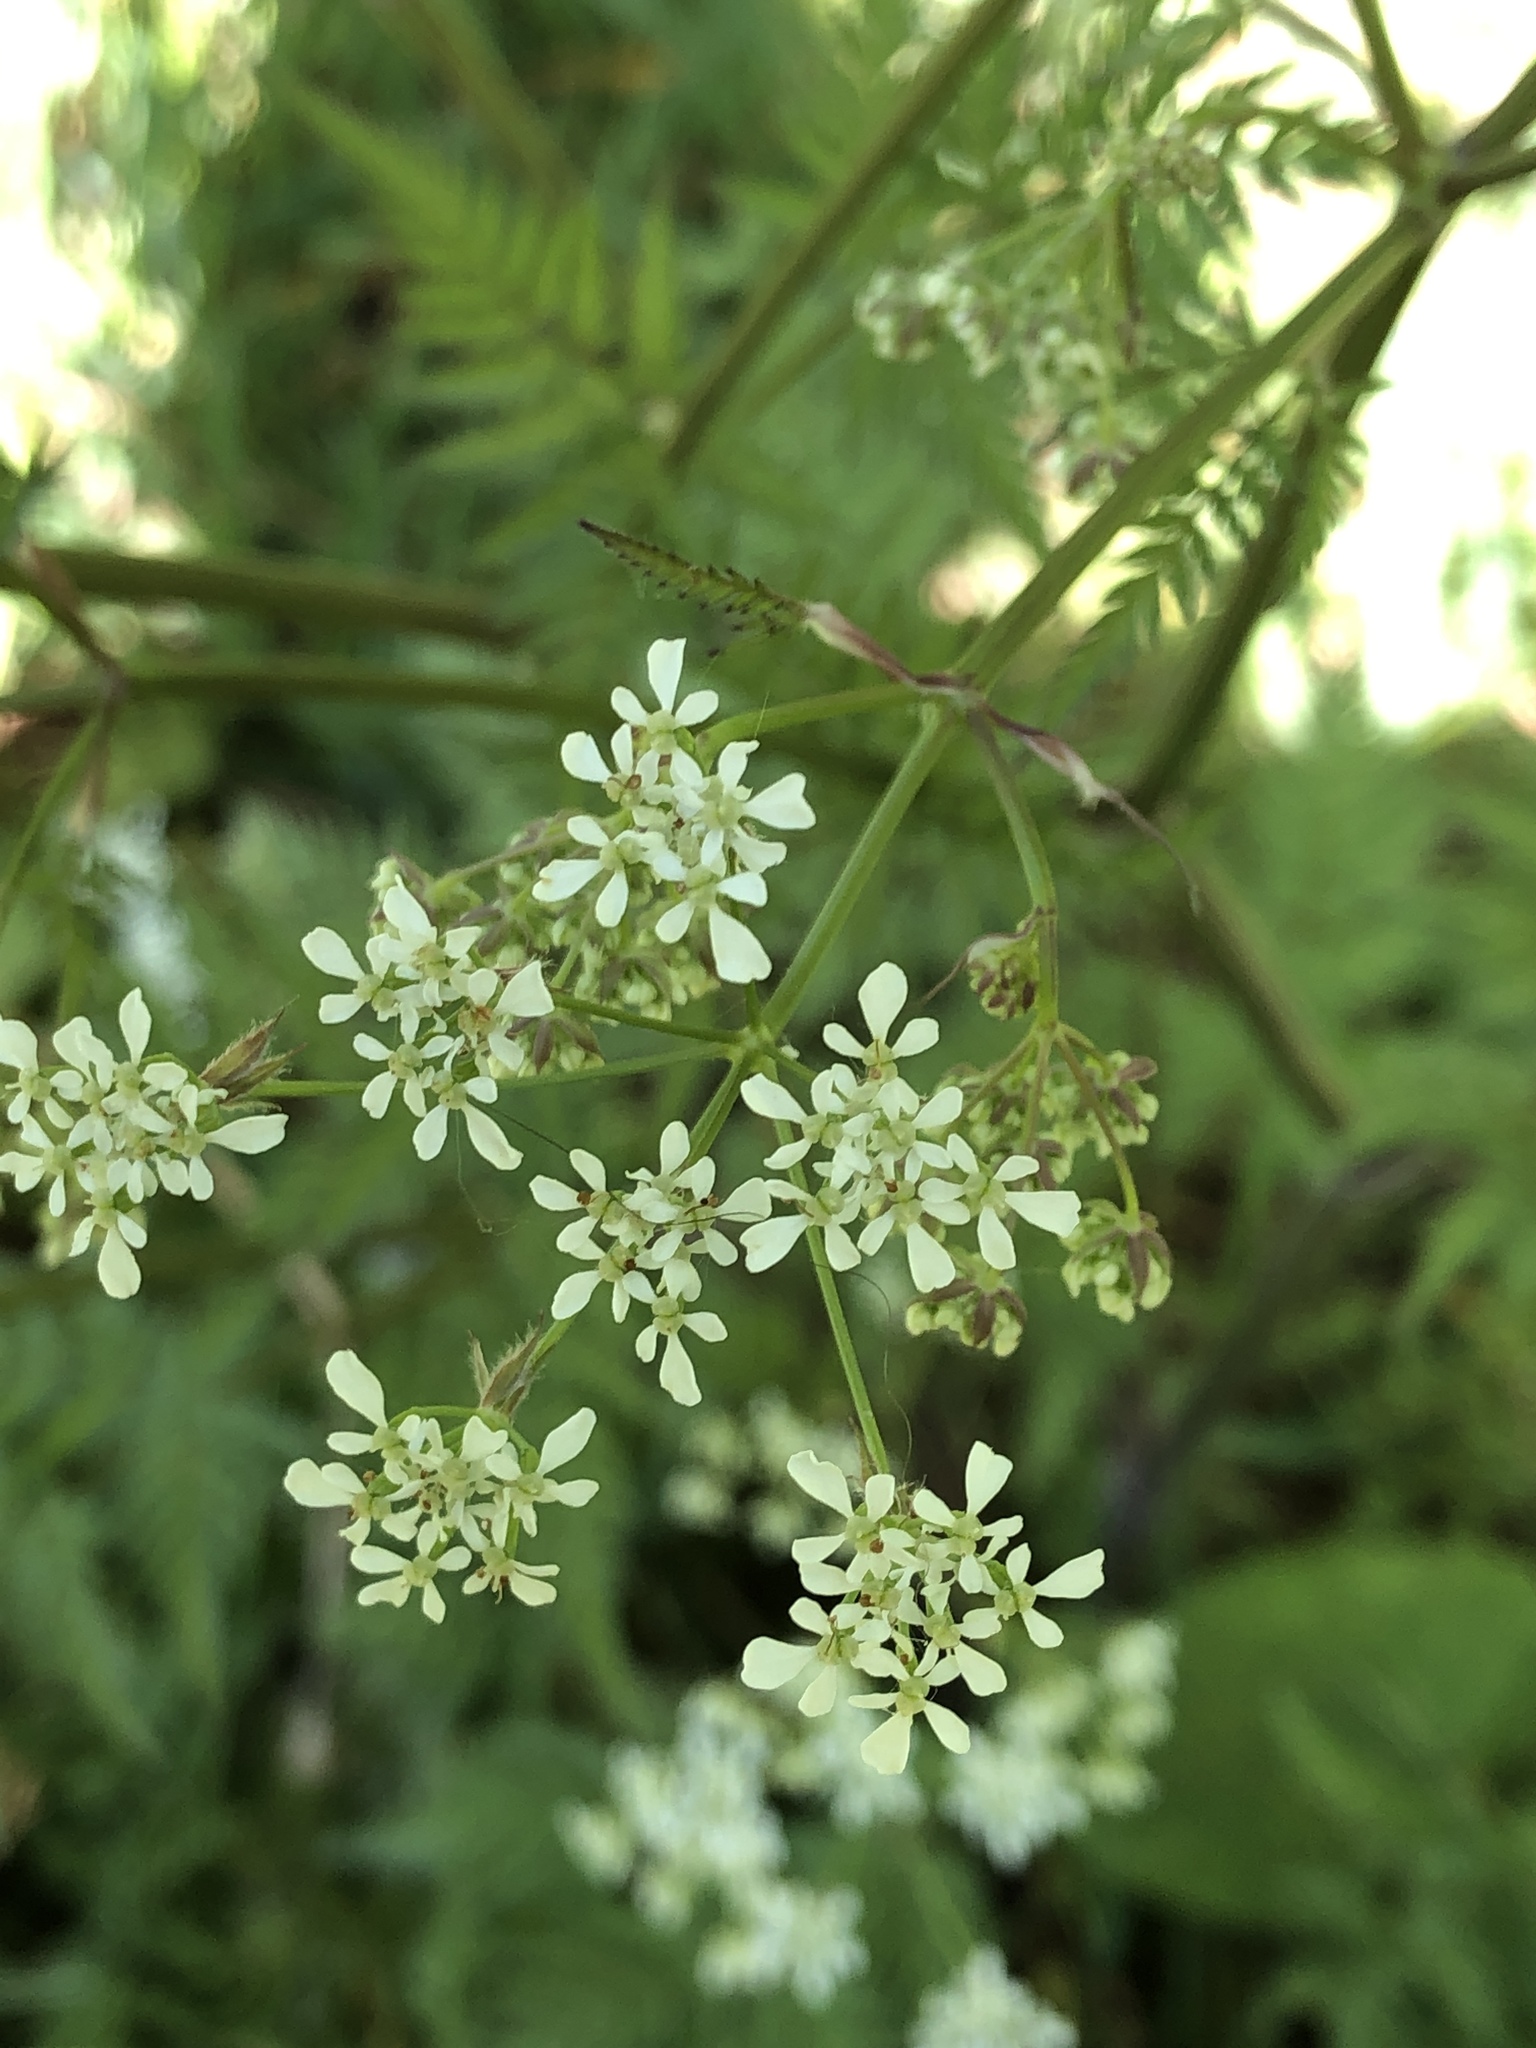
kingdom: Plantae
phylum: Tracheophyta
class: Magnoliopsida
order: Apiales
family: Apiaceae
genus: Anthriscus
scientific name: Anthriscus sylvestris
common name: Cow parsley
